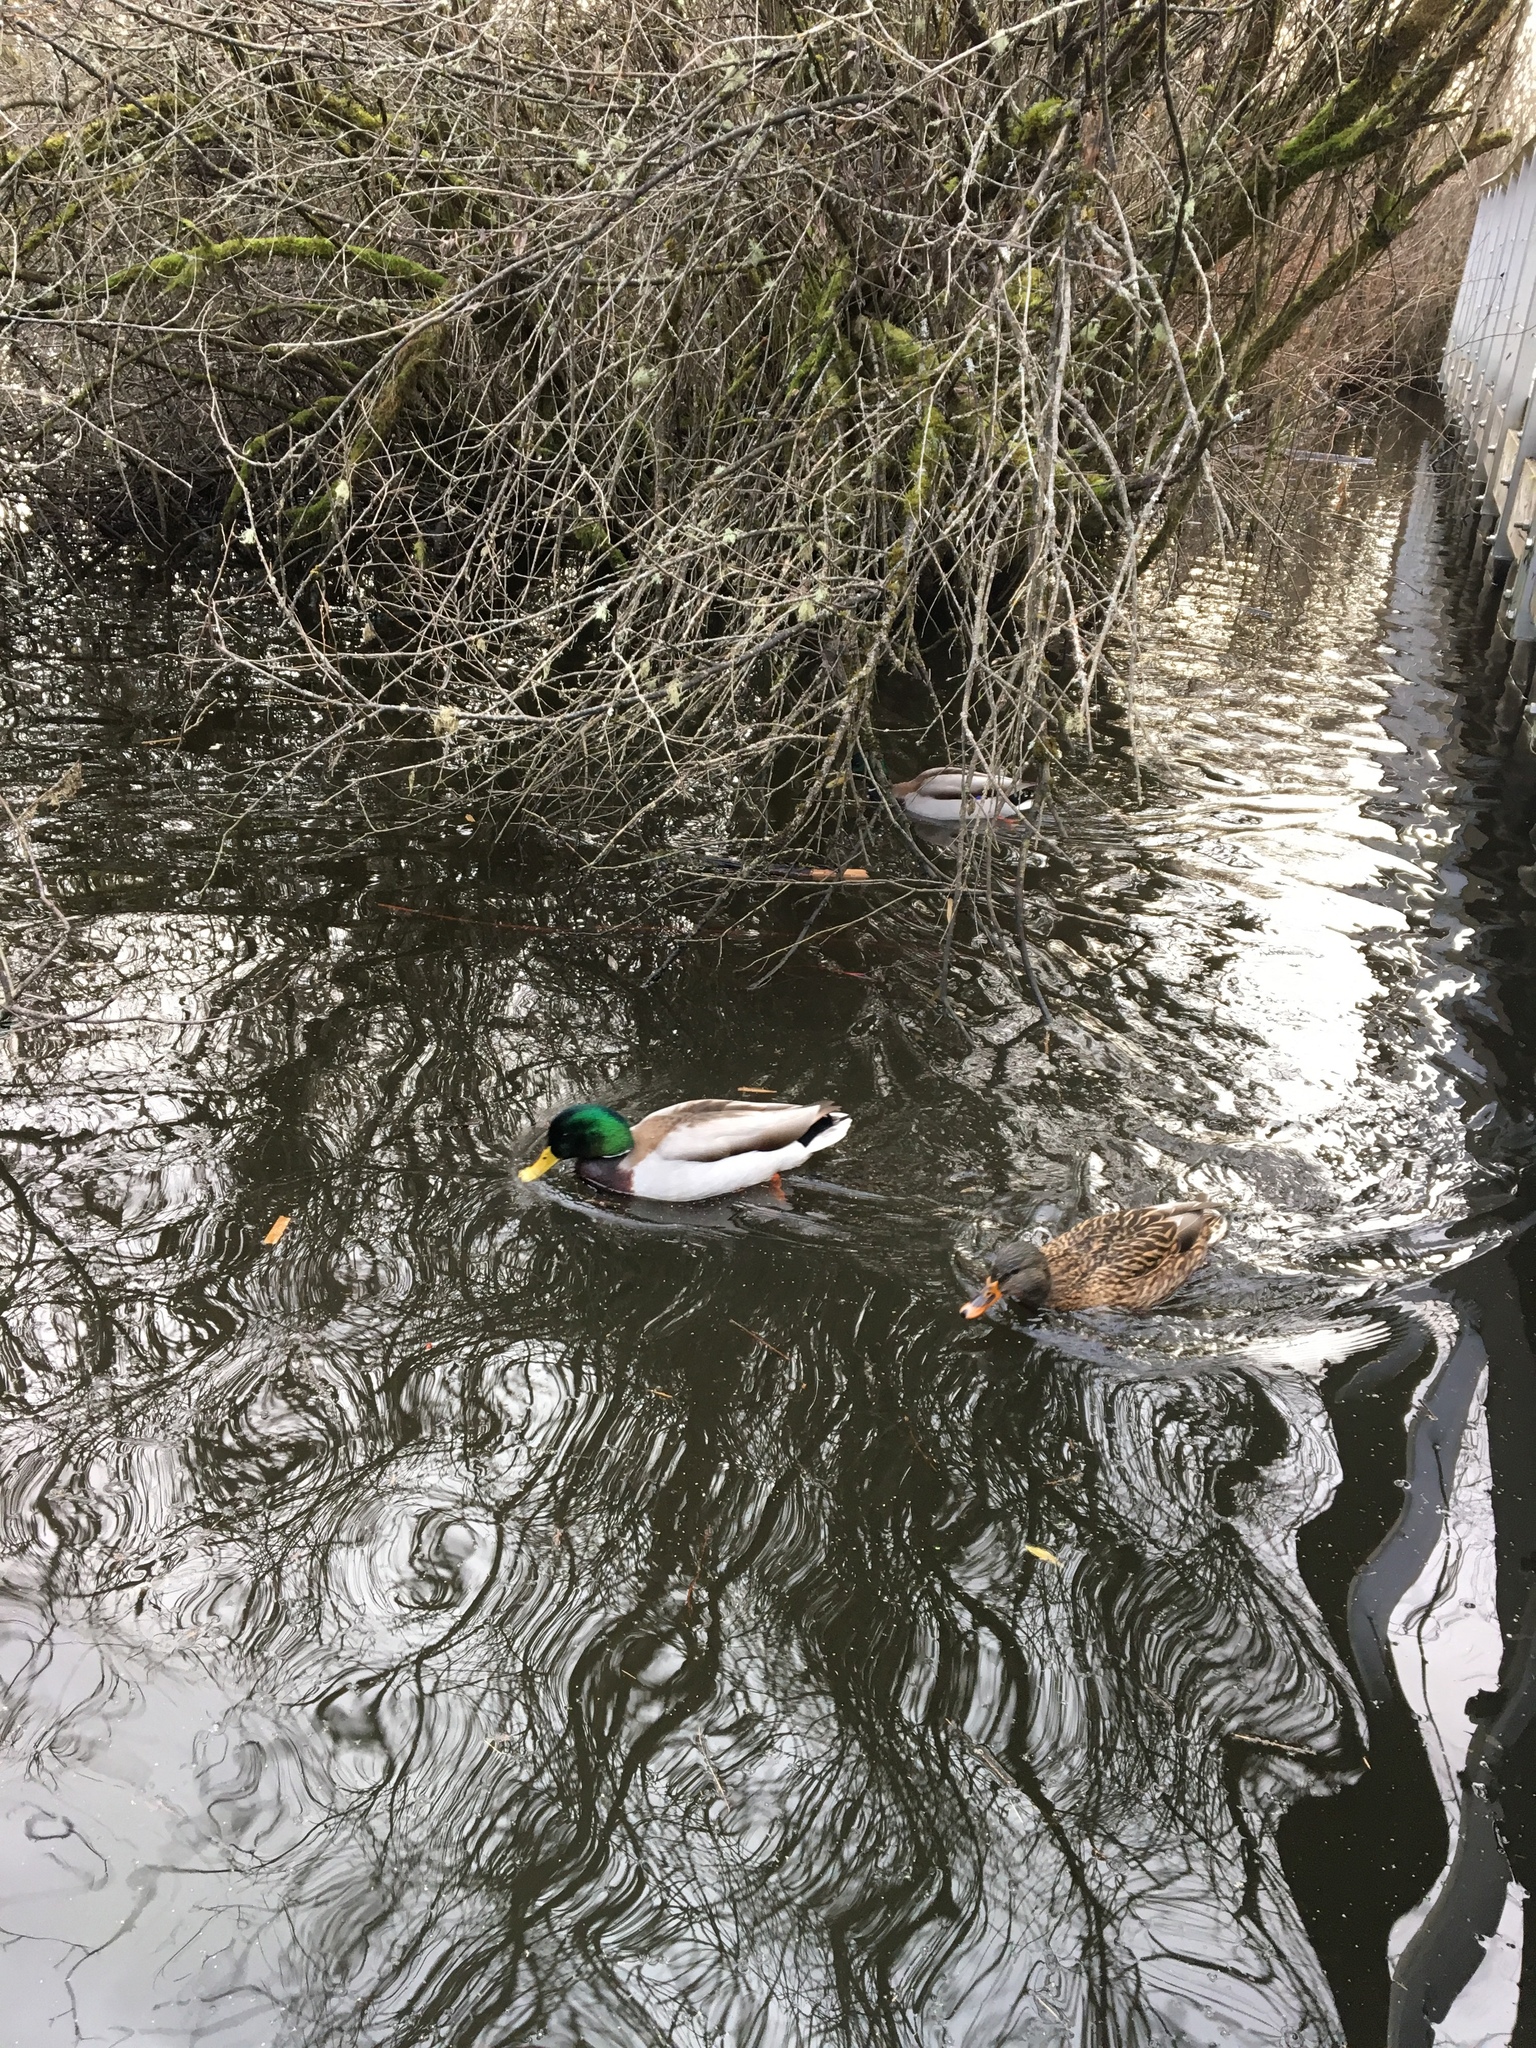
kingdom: Animalia
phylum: Chordata
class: Aves
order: Anseriformes
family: Anatidae
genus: Anas
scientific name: Anas platyrhynchos
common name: Mallard
